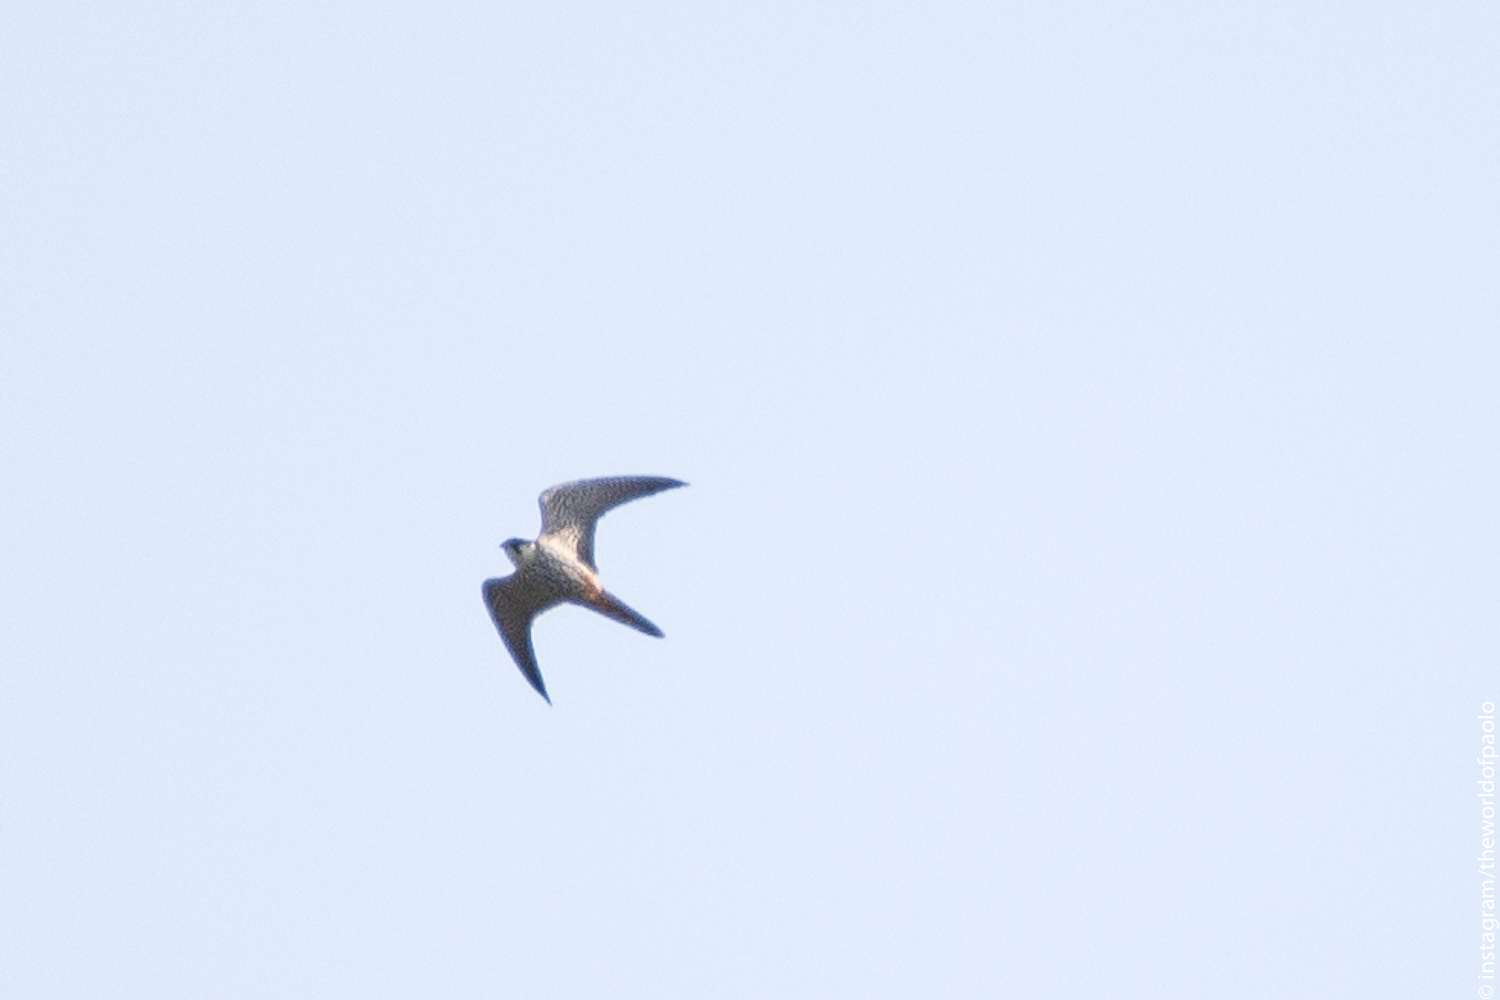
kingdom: Animalia
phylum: Chordata
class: Aves
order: Falconiformes
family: Falconidae
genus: Falco
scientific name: Falco subbuteo
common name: Eurasian hobby
